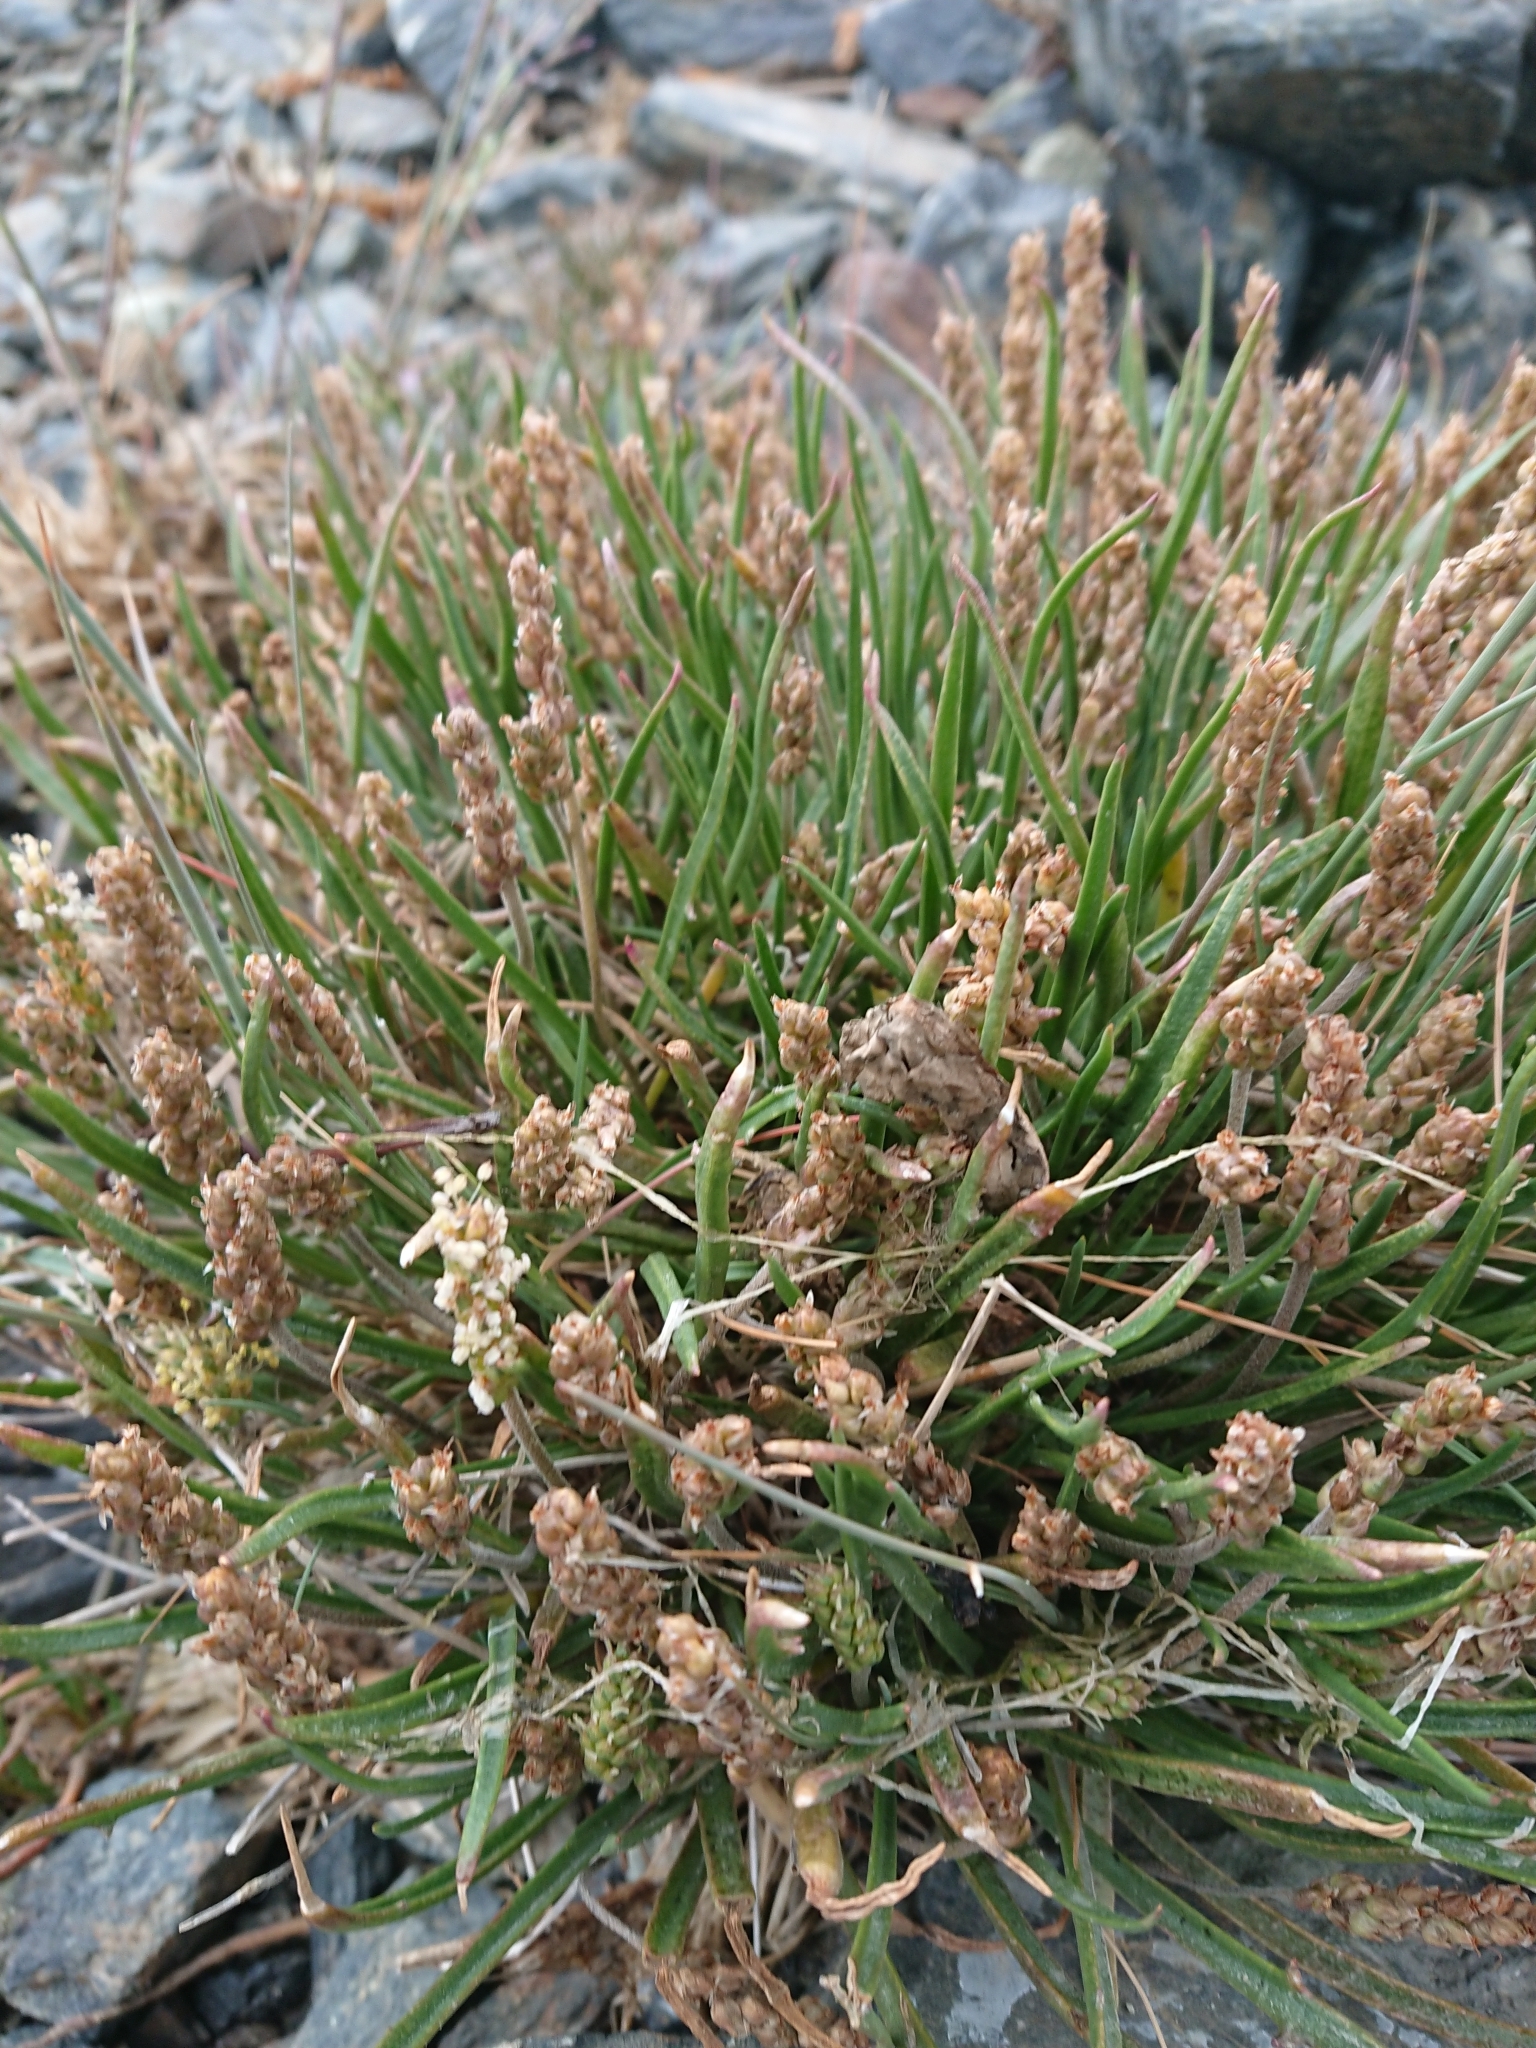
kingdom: Plantae
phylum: Tracheophyta
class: Magnoliopsida
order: Lamiales
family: Plantaginaceae
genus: Plantago
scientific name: Plantago maritima
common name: Sea plantain
